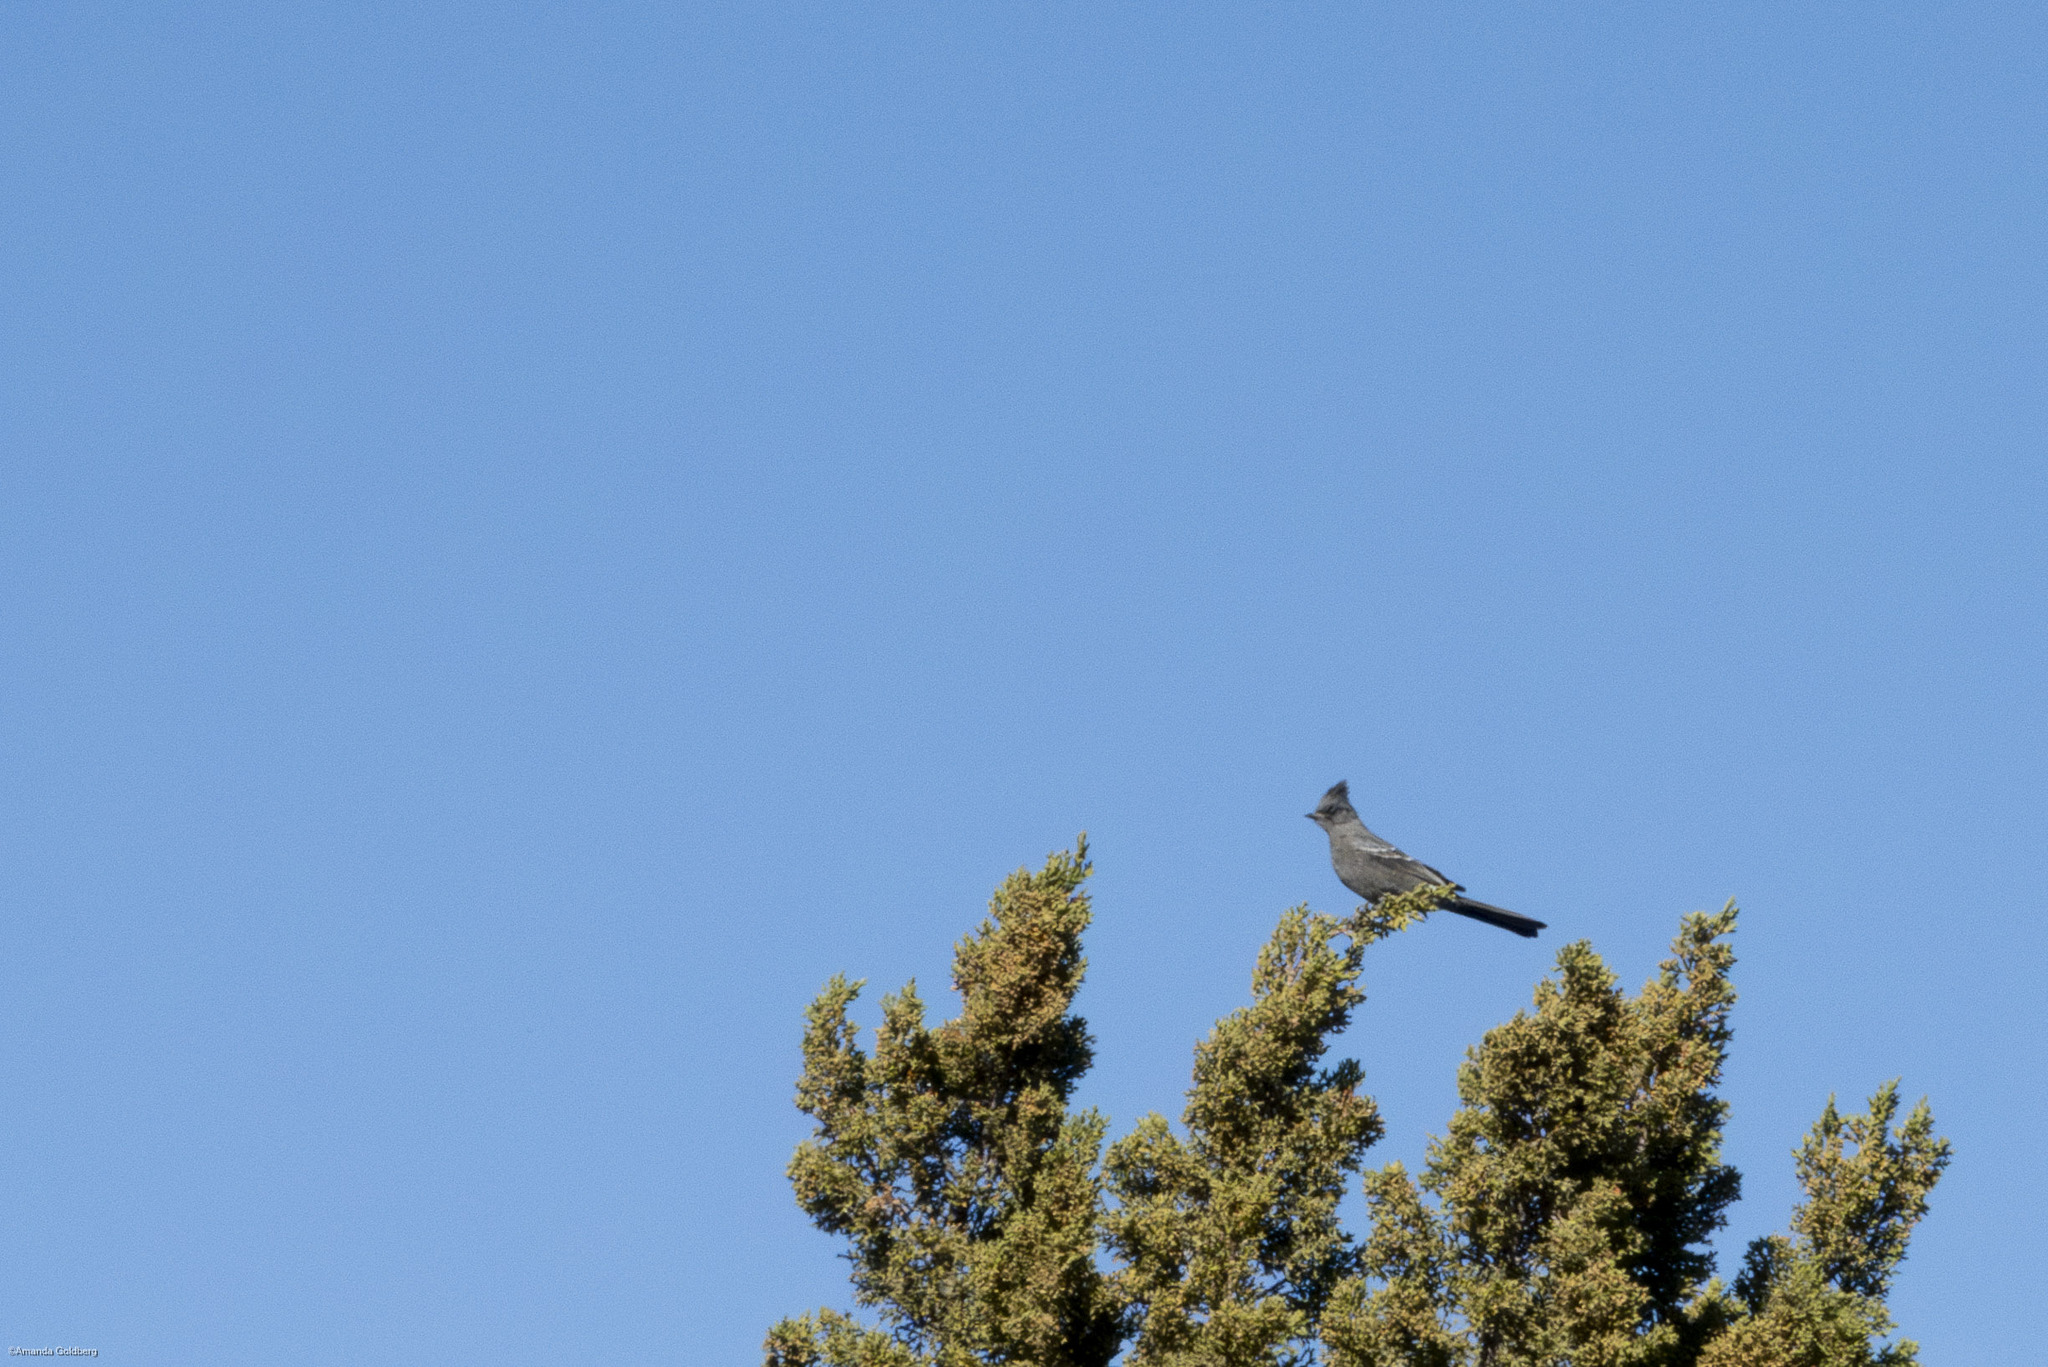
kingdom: Animalia
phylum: Chordata
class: Aves
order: Passeriformes
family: Ptilogonatidae
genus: Phainopepla
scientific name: Phainopepla nitens
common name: Phainopepla
